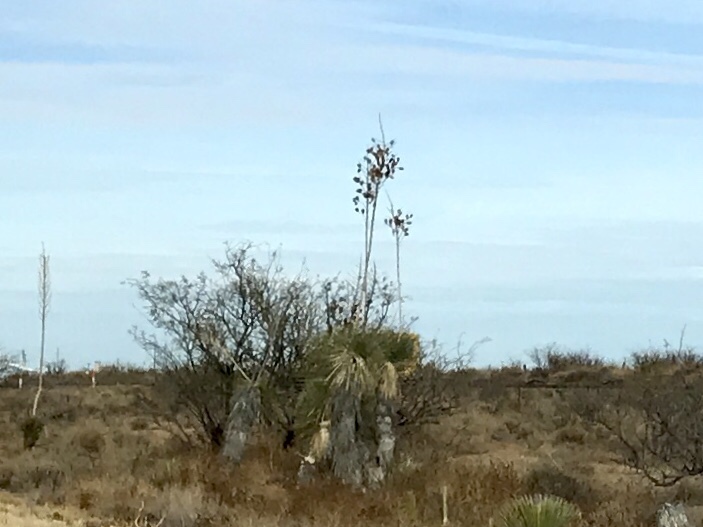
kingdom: Plantae
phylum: Tracheophyta
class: Liliopsida
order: Asparagales
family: Asparagaceae
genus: Yucca
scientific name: Yucca elata
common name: Palmella
